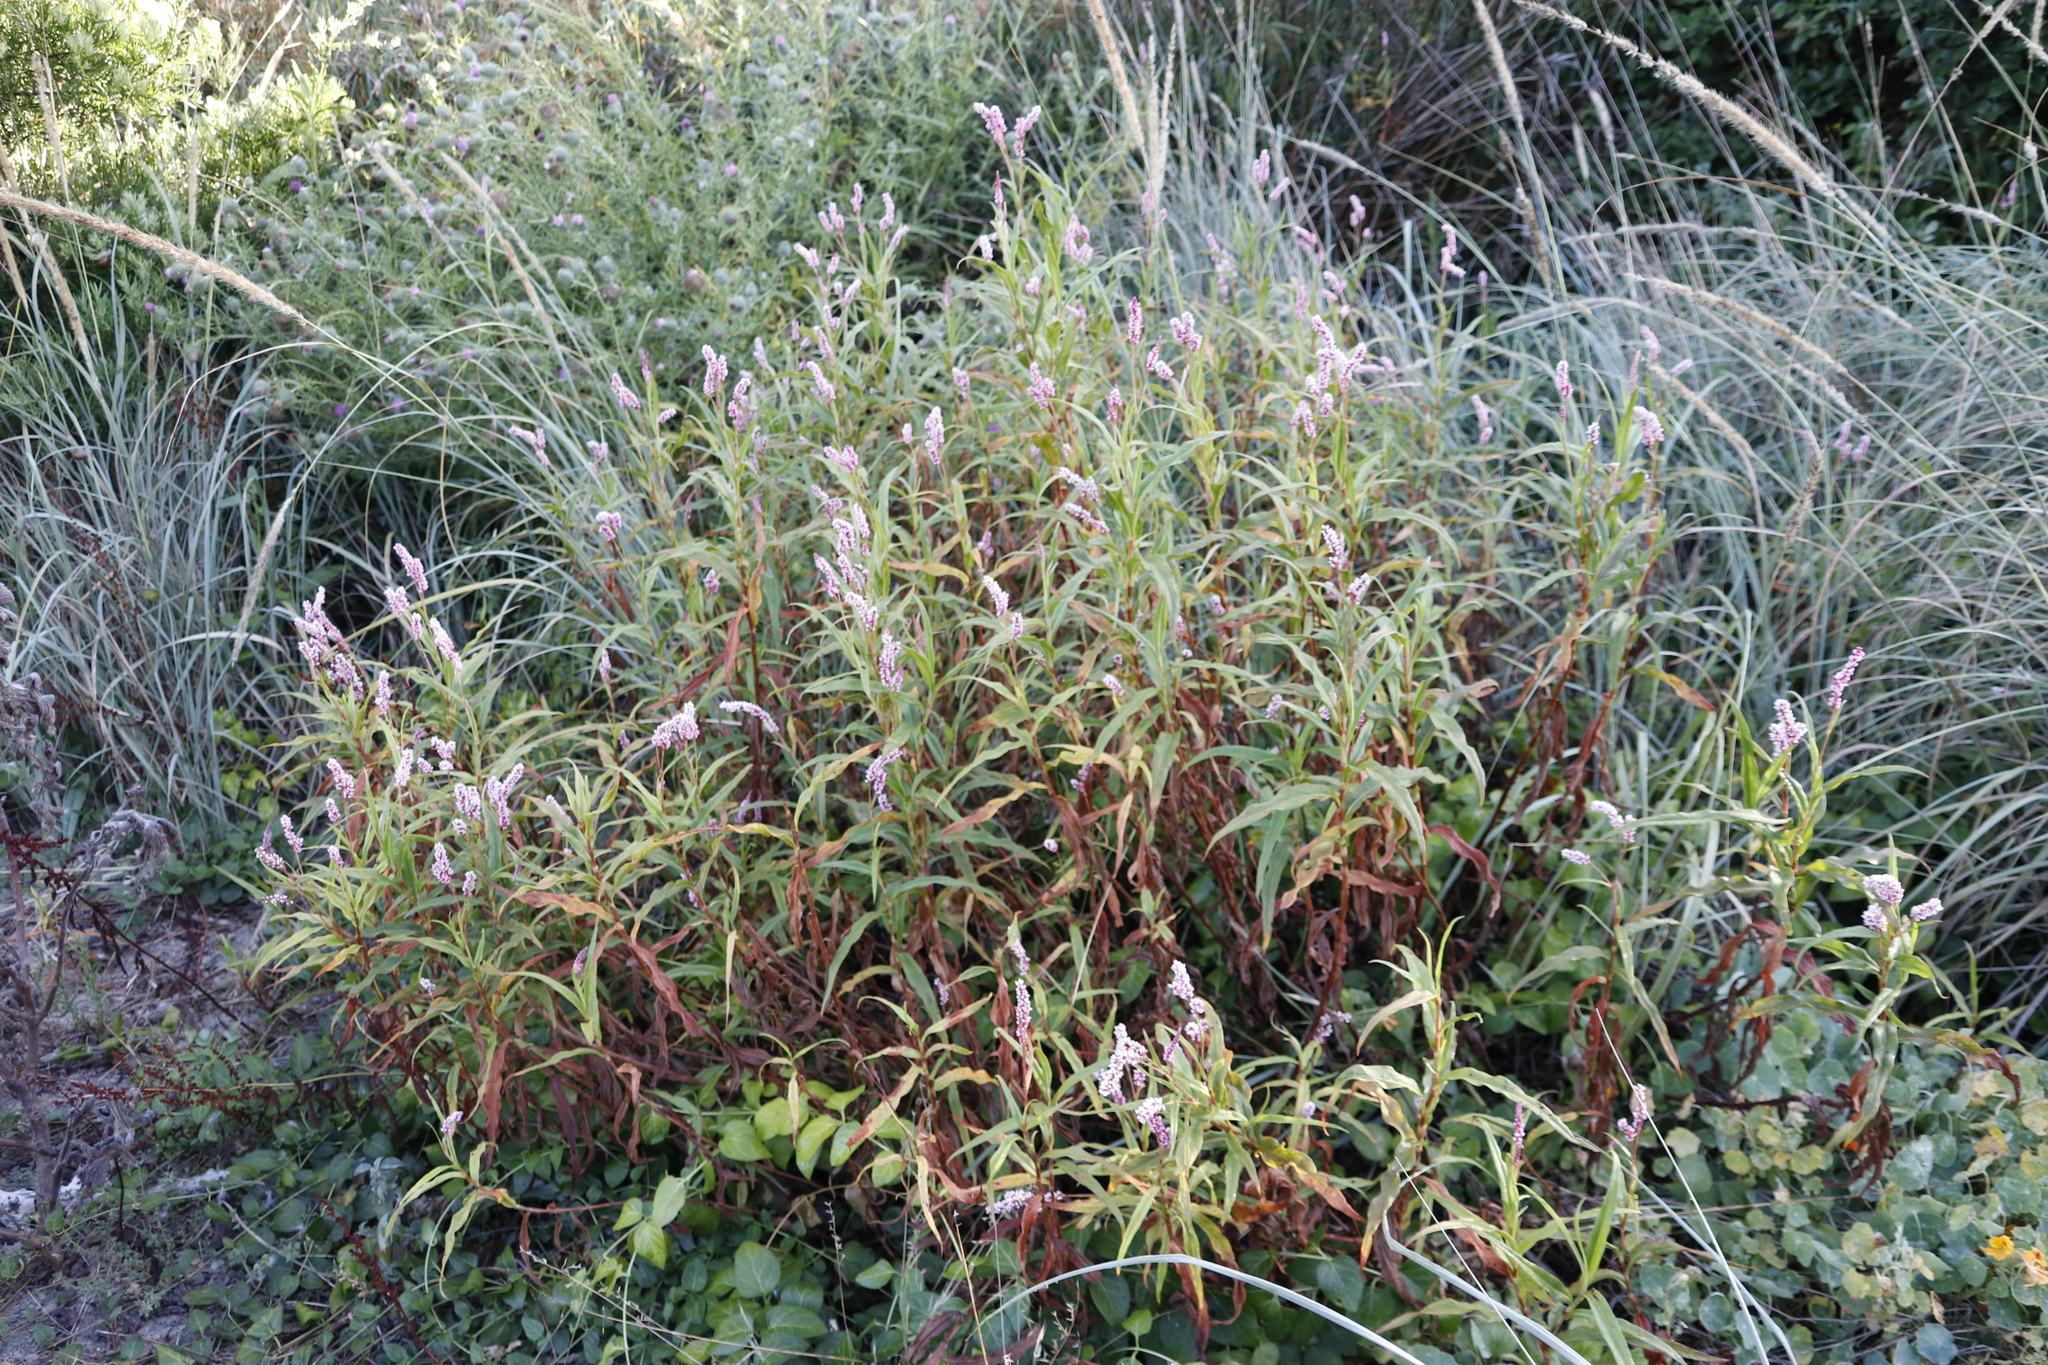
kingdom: Plantae
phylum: Tracheophyta
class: Magnoliopsida
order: Caryophyllales
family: Polygonaceae
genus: Persicaria
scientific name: Persicaria madagascariensis
